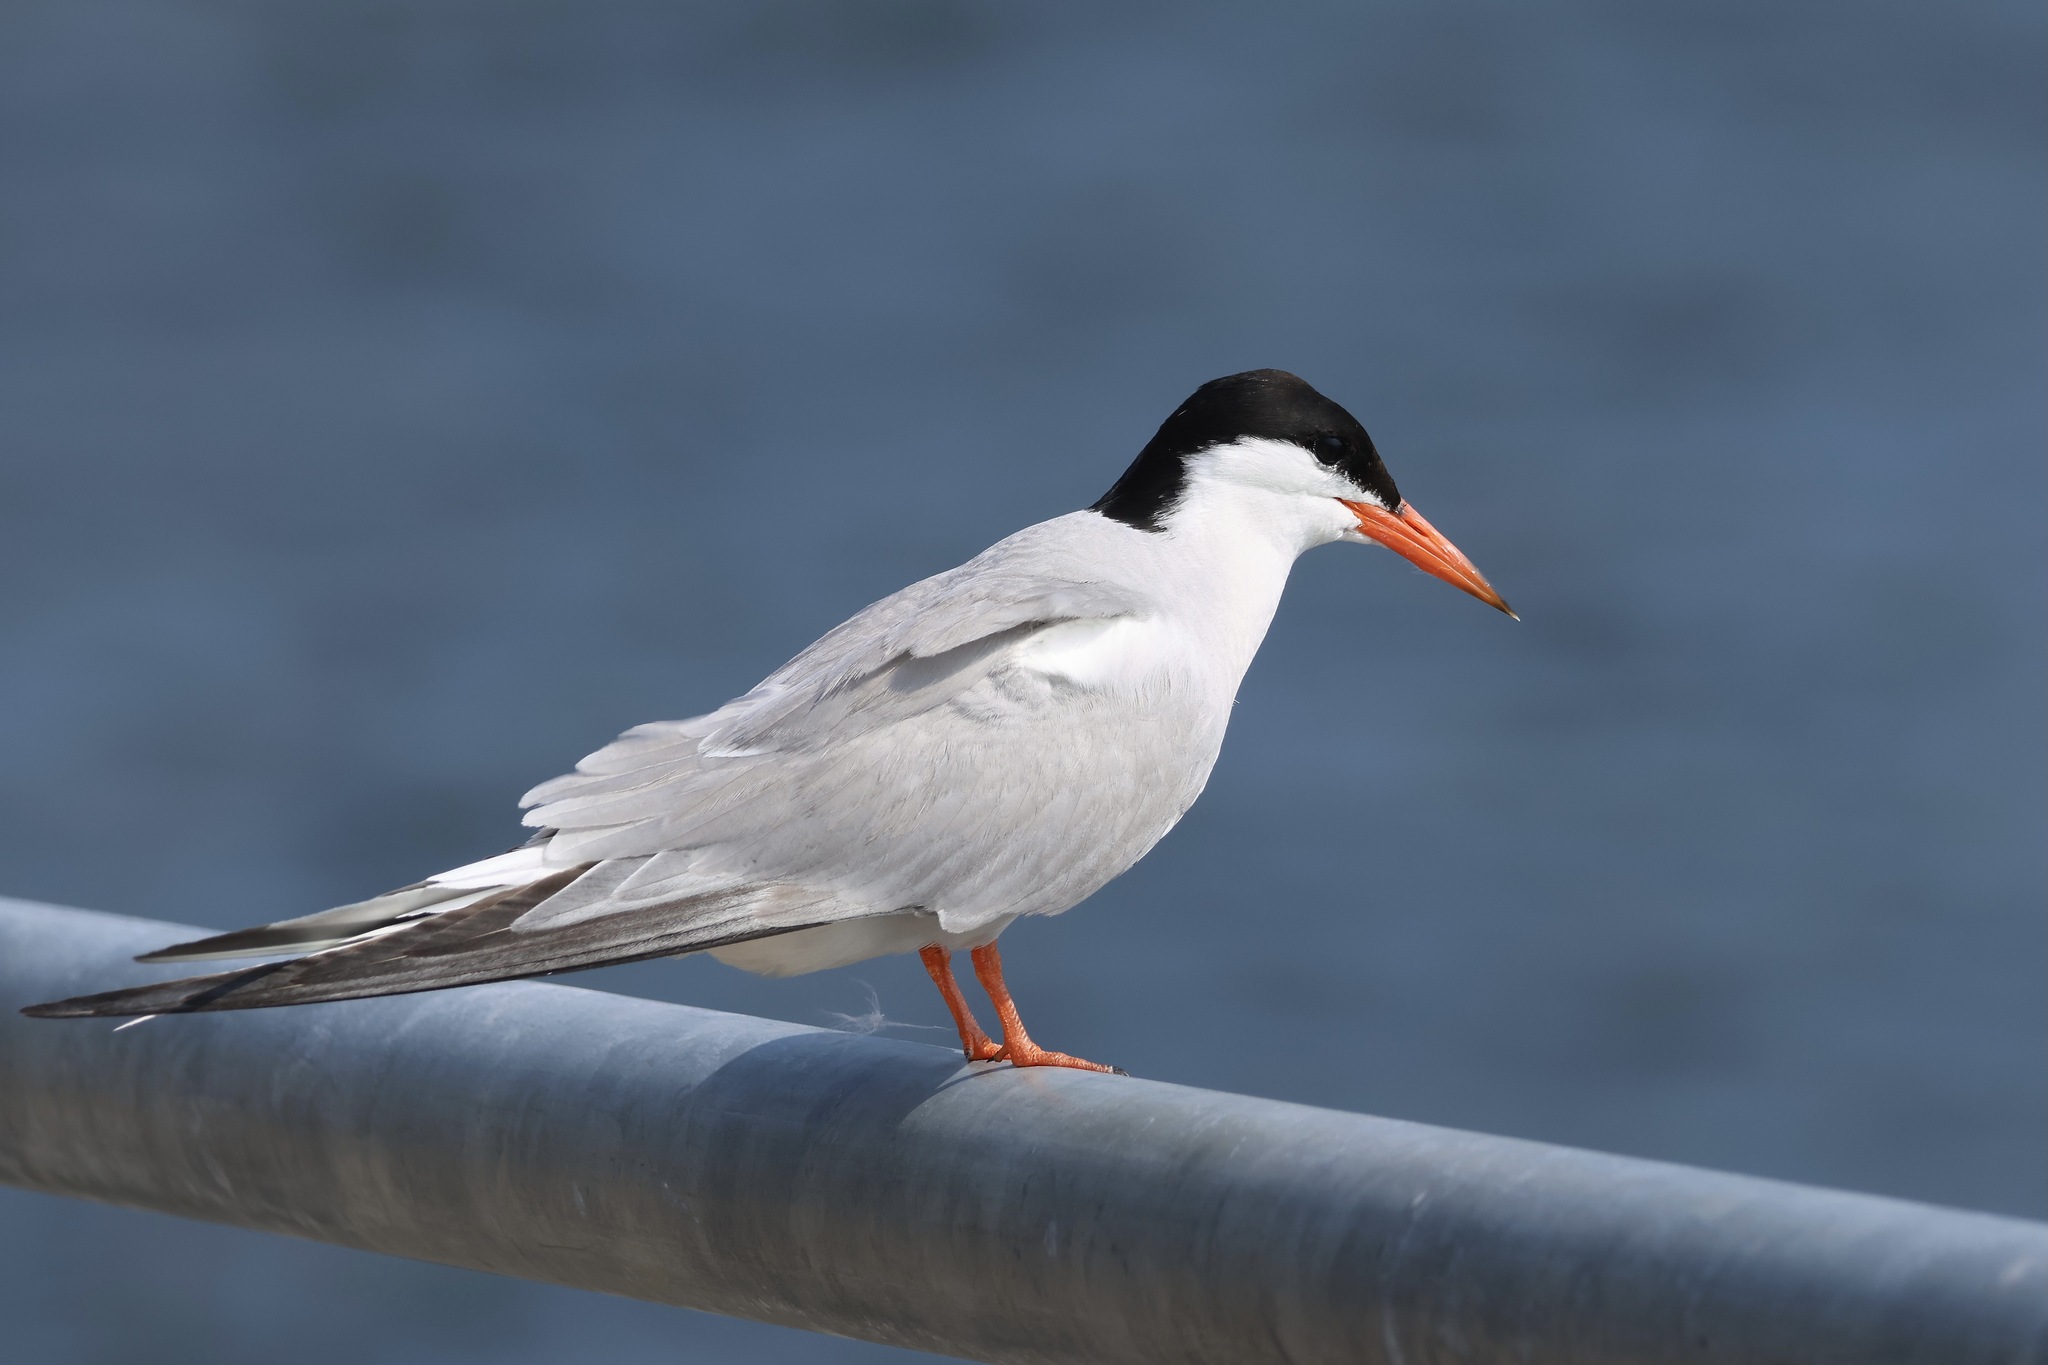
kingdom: Animalia
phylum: Chordata
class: Aves
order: Charadriiformes
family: Laridae
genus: Sterna
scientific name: Sterna hirundo
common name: Common tern
